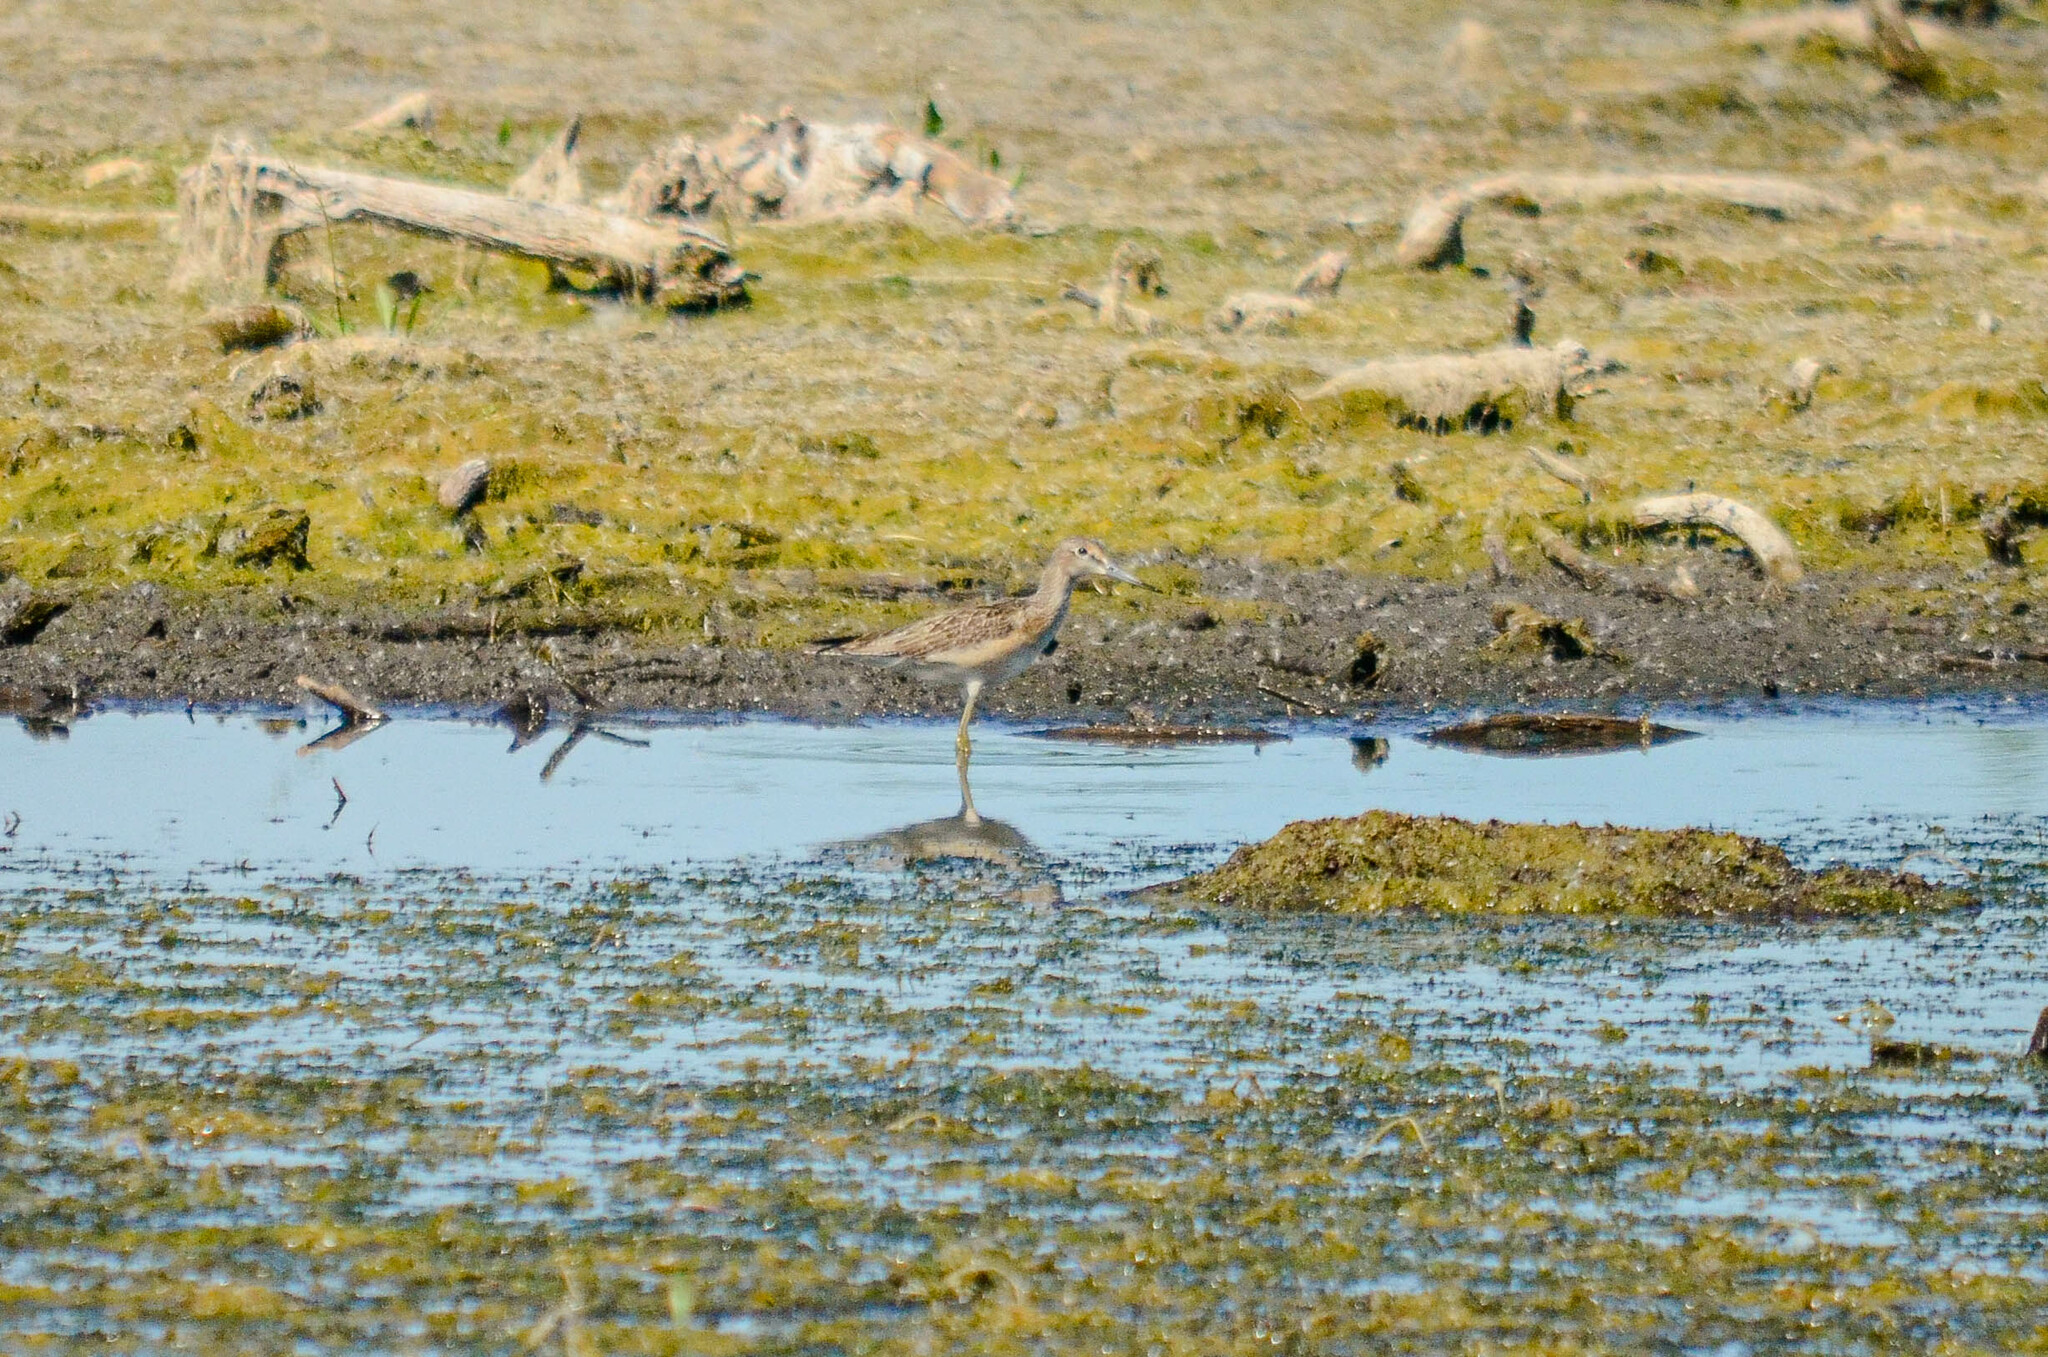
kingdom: Animalia
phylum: Chordata
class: Aves
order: Charadriiformes
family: Scolopacidae
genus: Tringa
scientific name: Tringa nebularia
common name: Common greenshank
